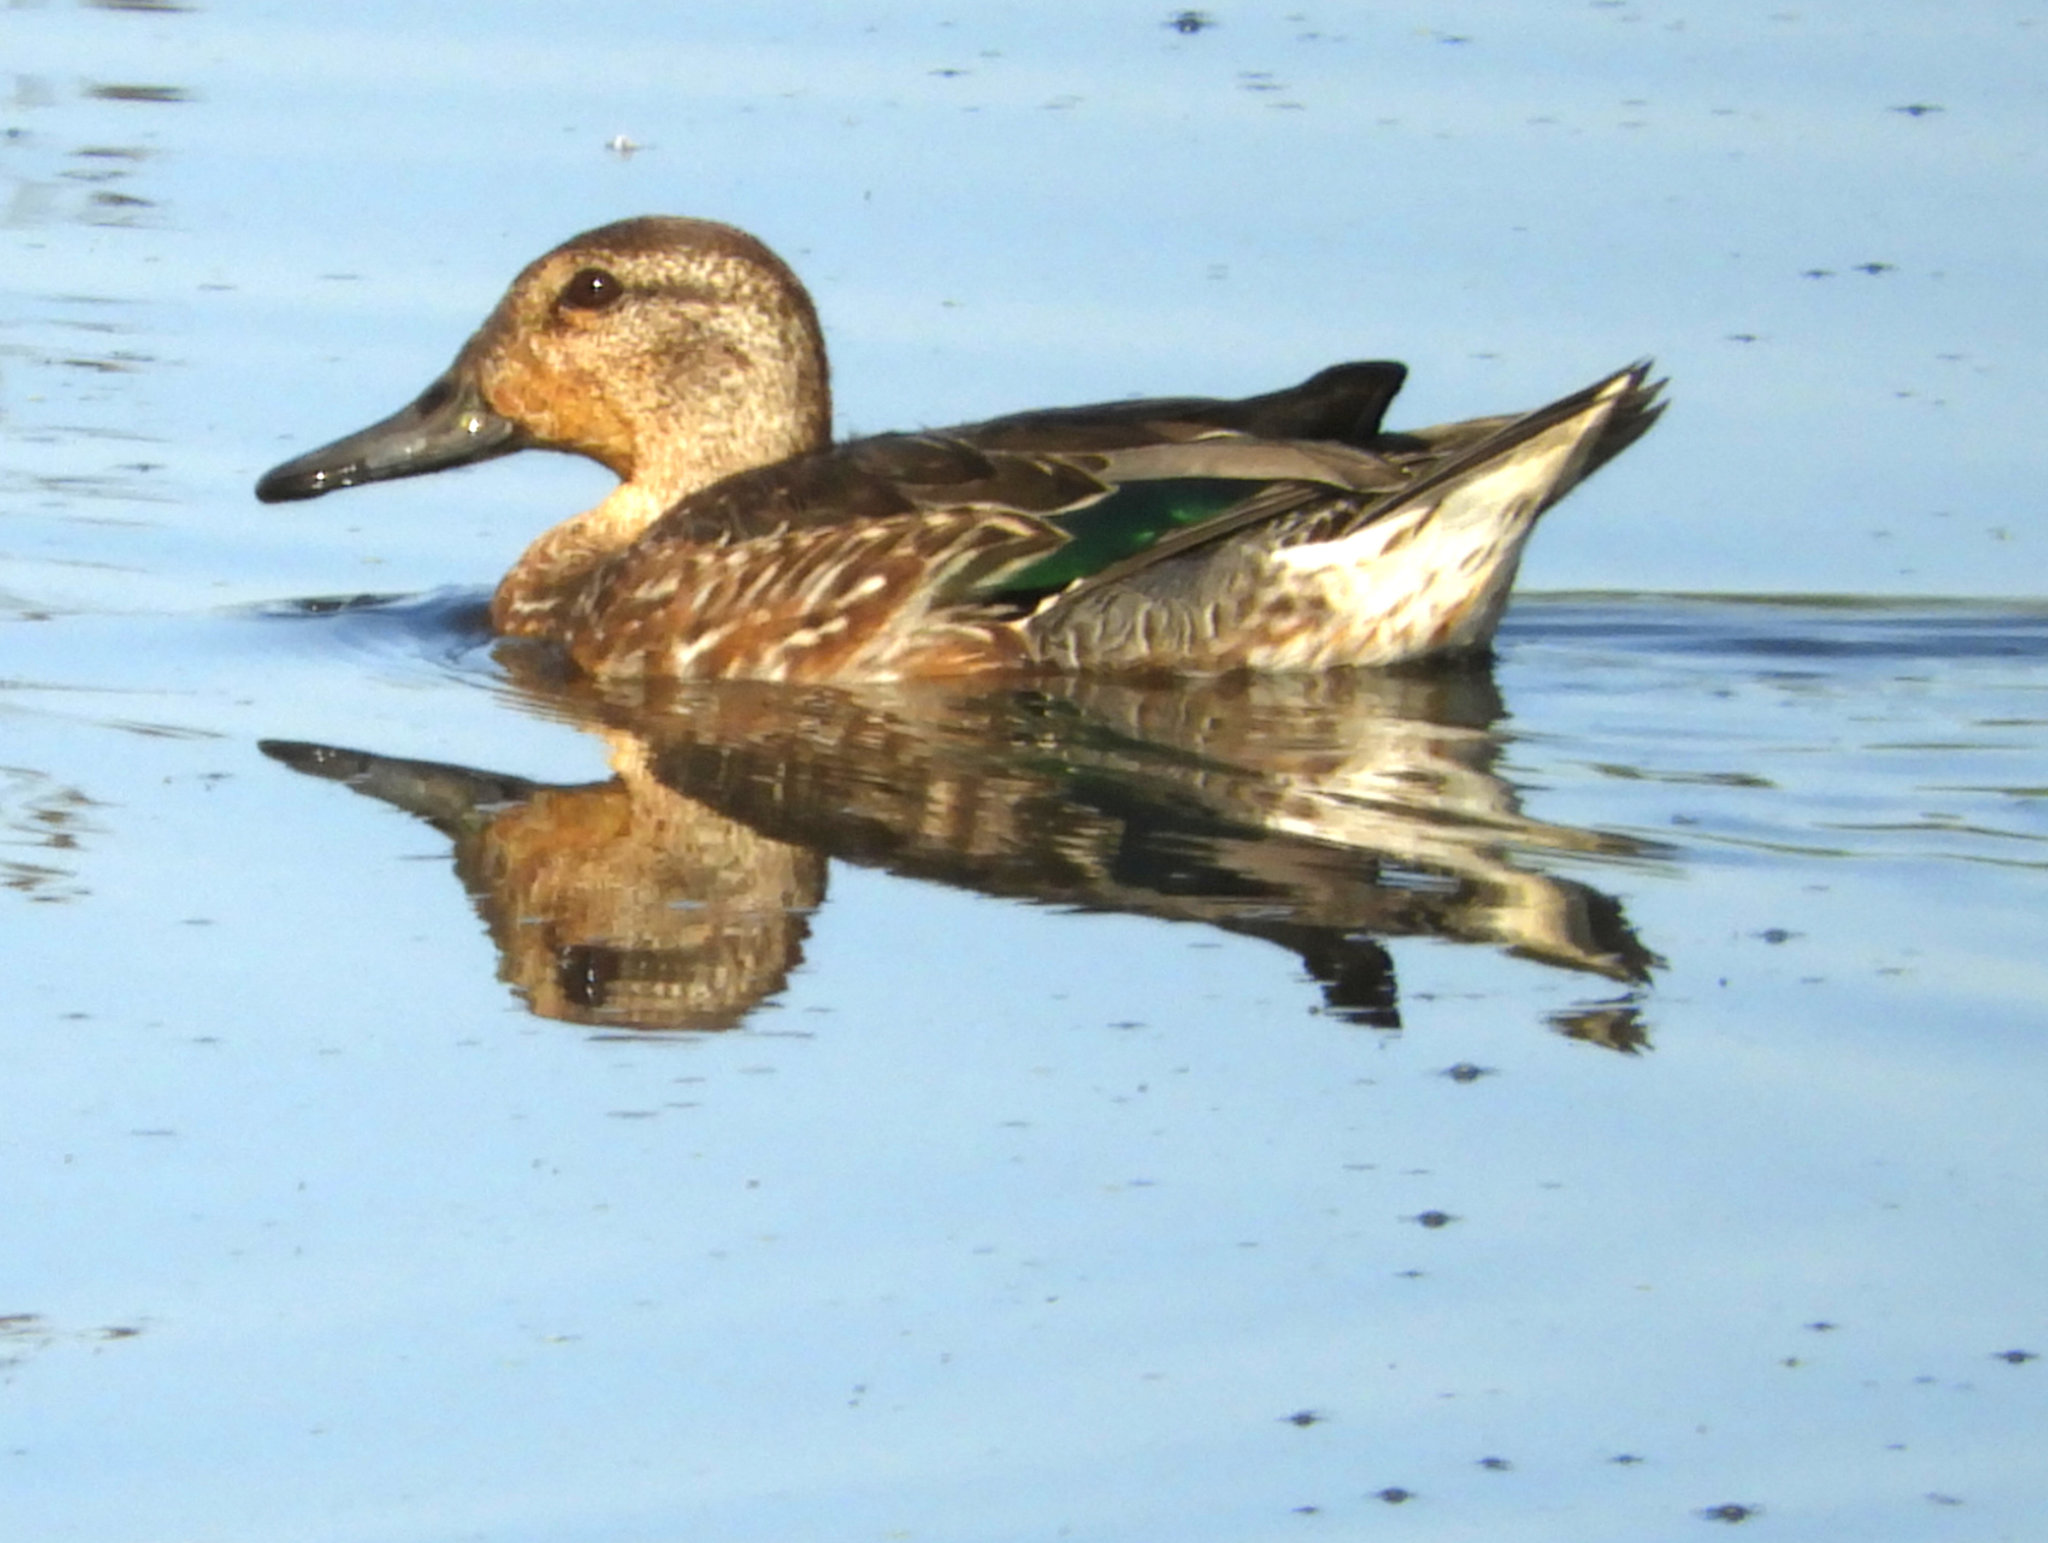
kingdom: Animalia
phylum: Chordata
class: Aves
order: Anseriformes
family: Anatidae
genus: Anas
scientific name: Anas crecca
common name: Eurasian teal
